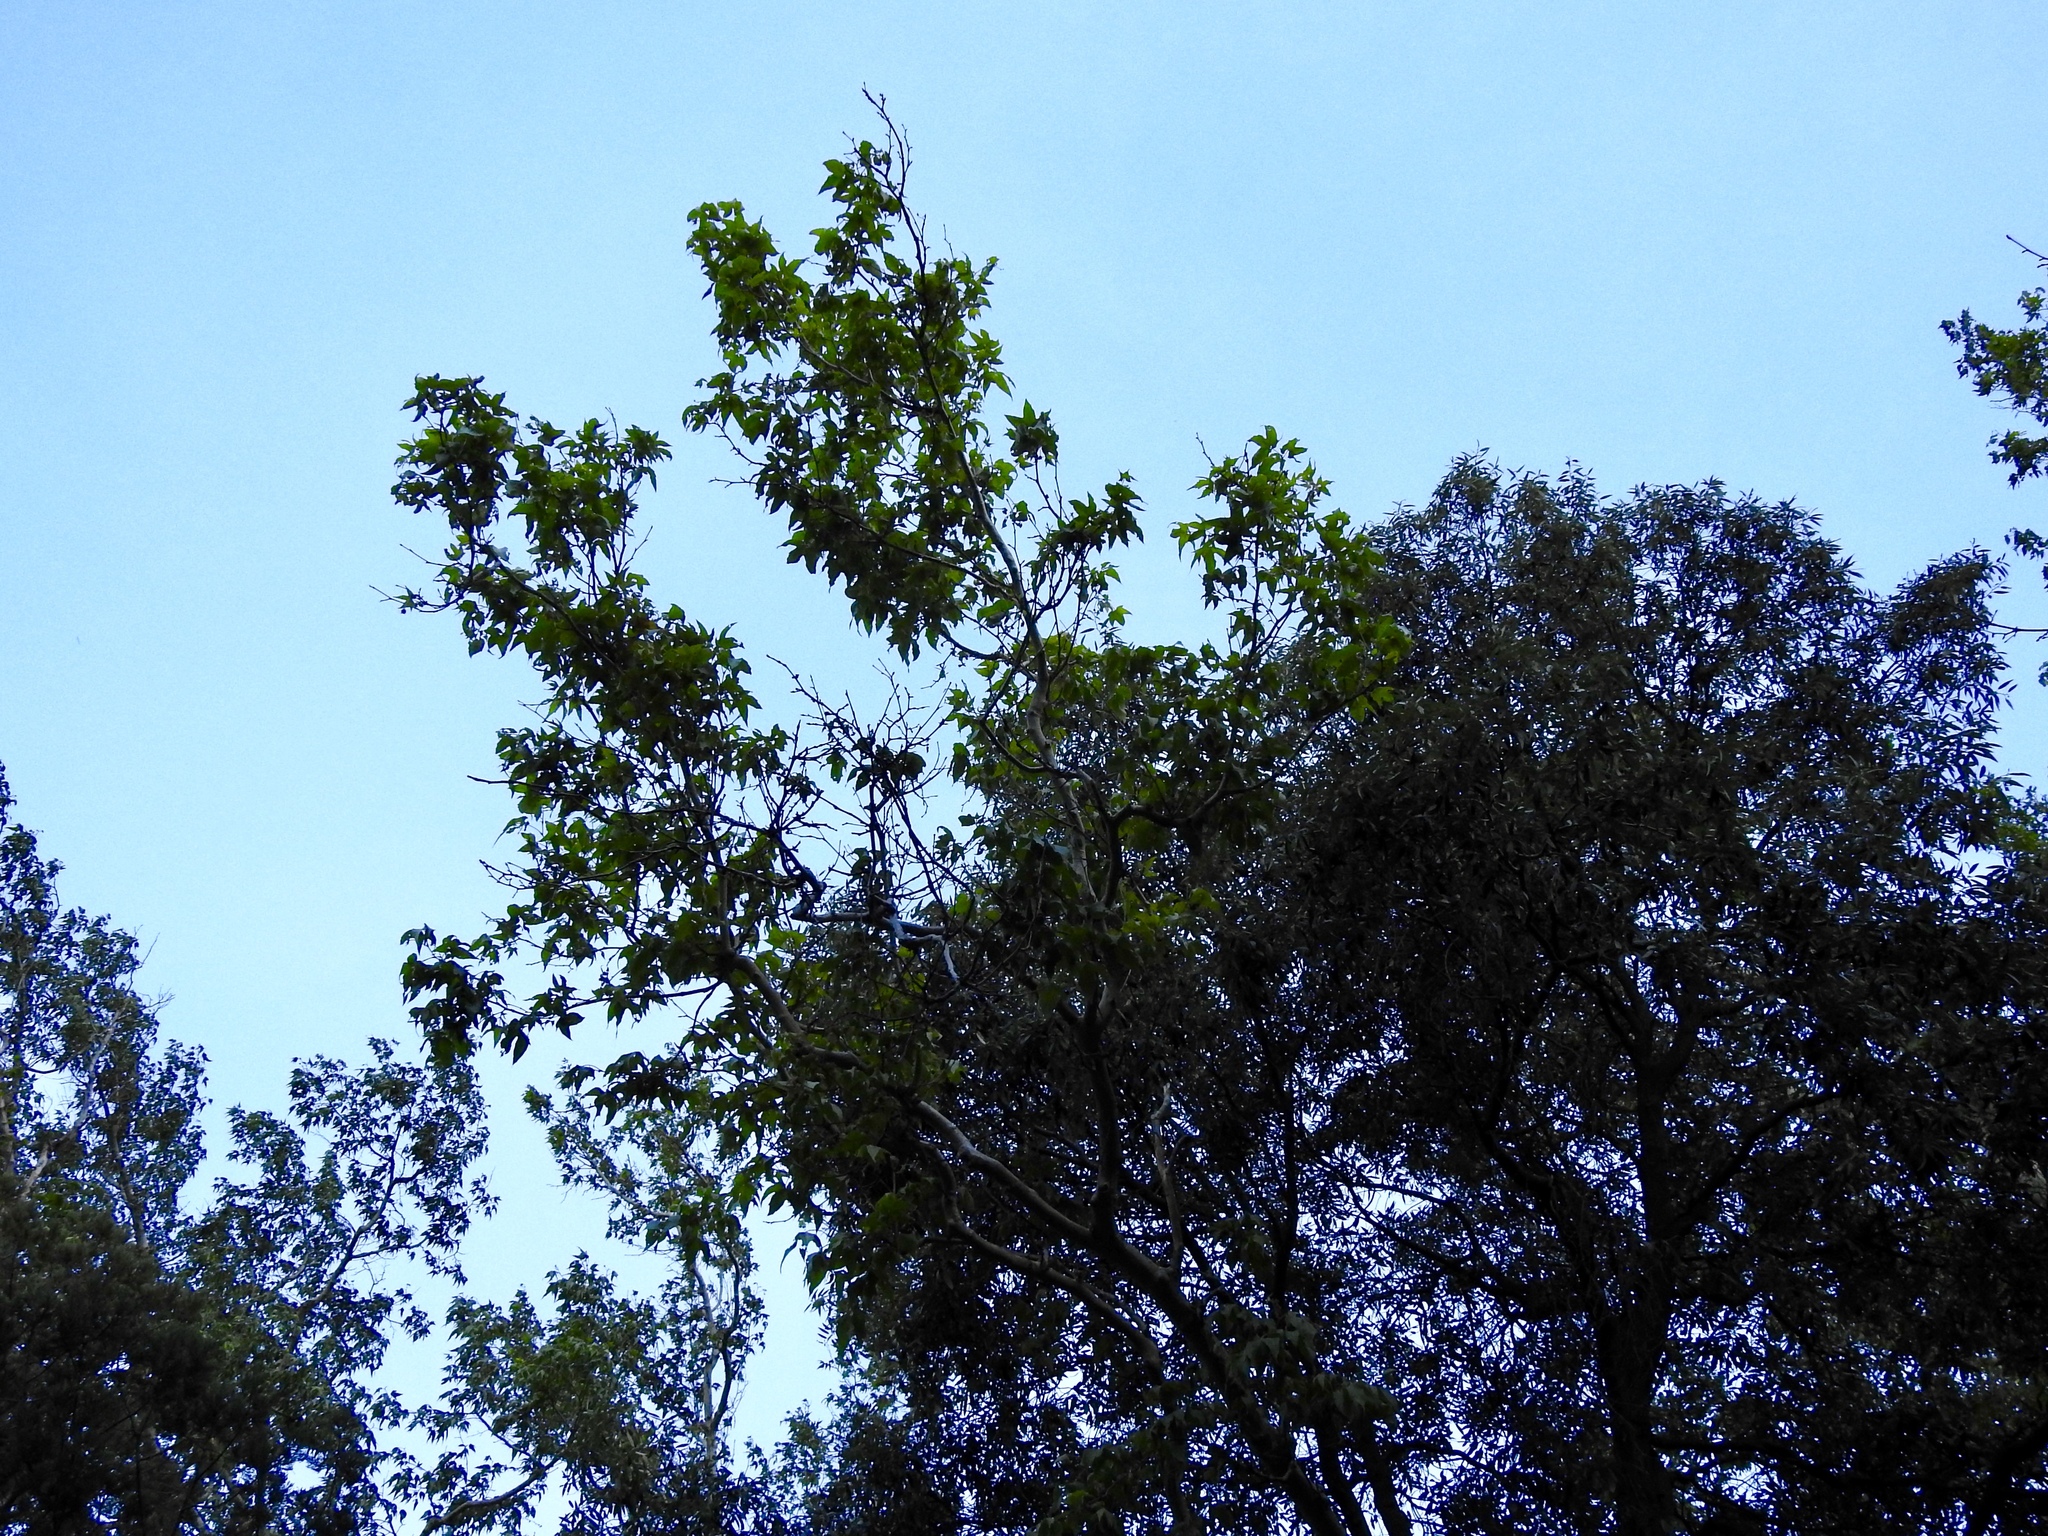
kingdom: Plantae
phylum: Tracheophyta
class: Magnoliopsida
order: Proteales
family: Platanaceae
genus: Platanus
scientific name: Platanus wrightii
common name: Arizona sycamore
